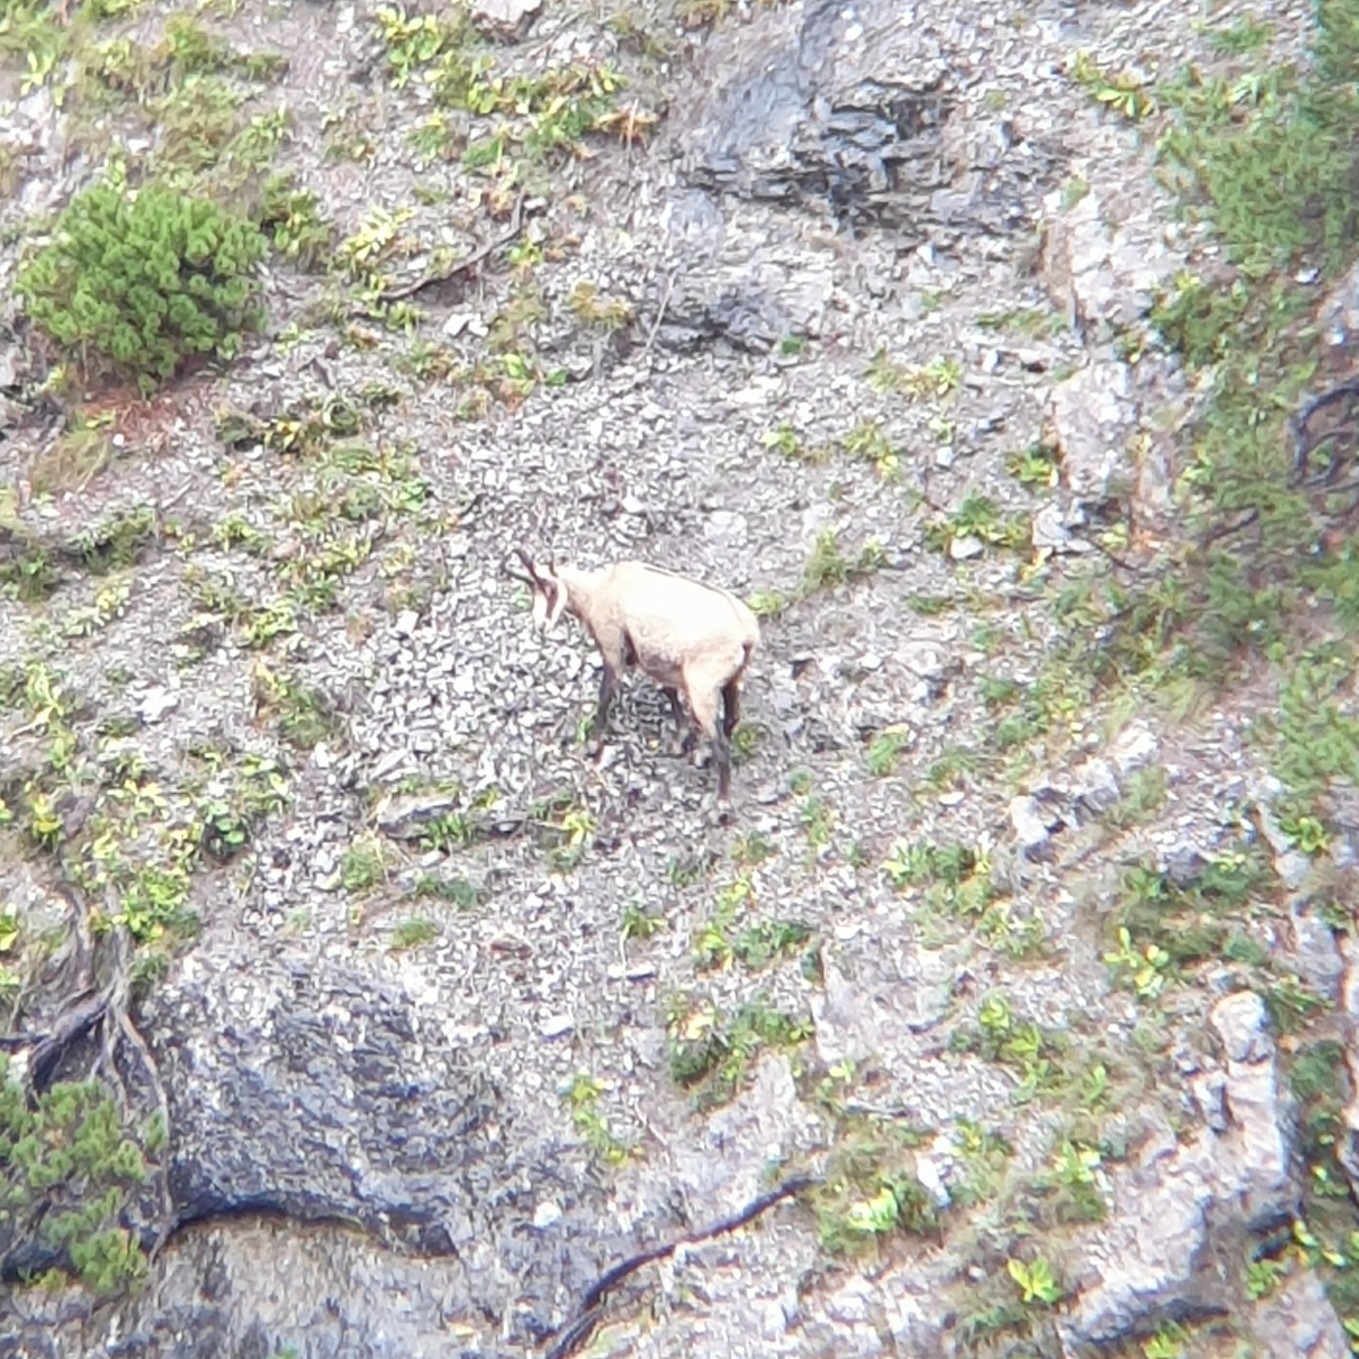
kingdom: Animalia
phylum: Chordata
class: Mammalia
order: Artiodactyla
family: Bovidae
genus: Rupicapra
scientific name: Rupicapra rupicapra
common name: Chamois
